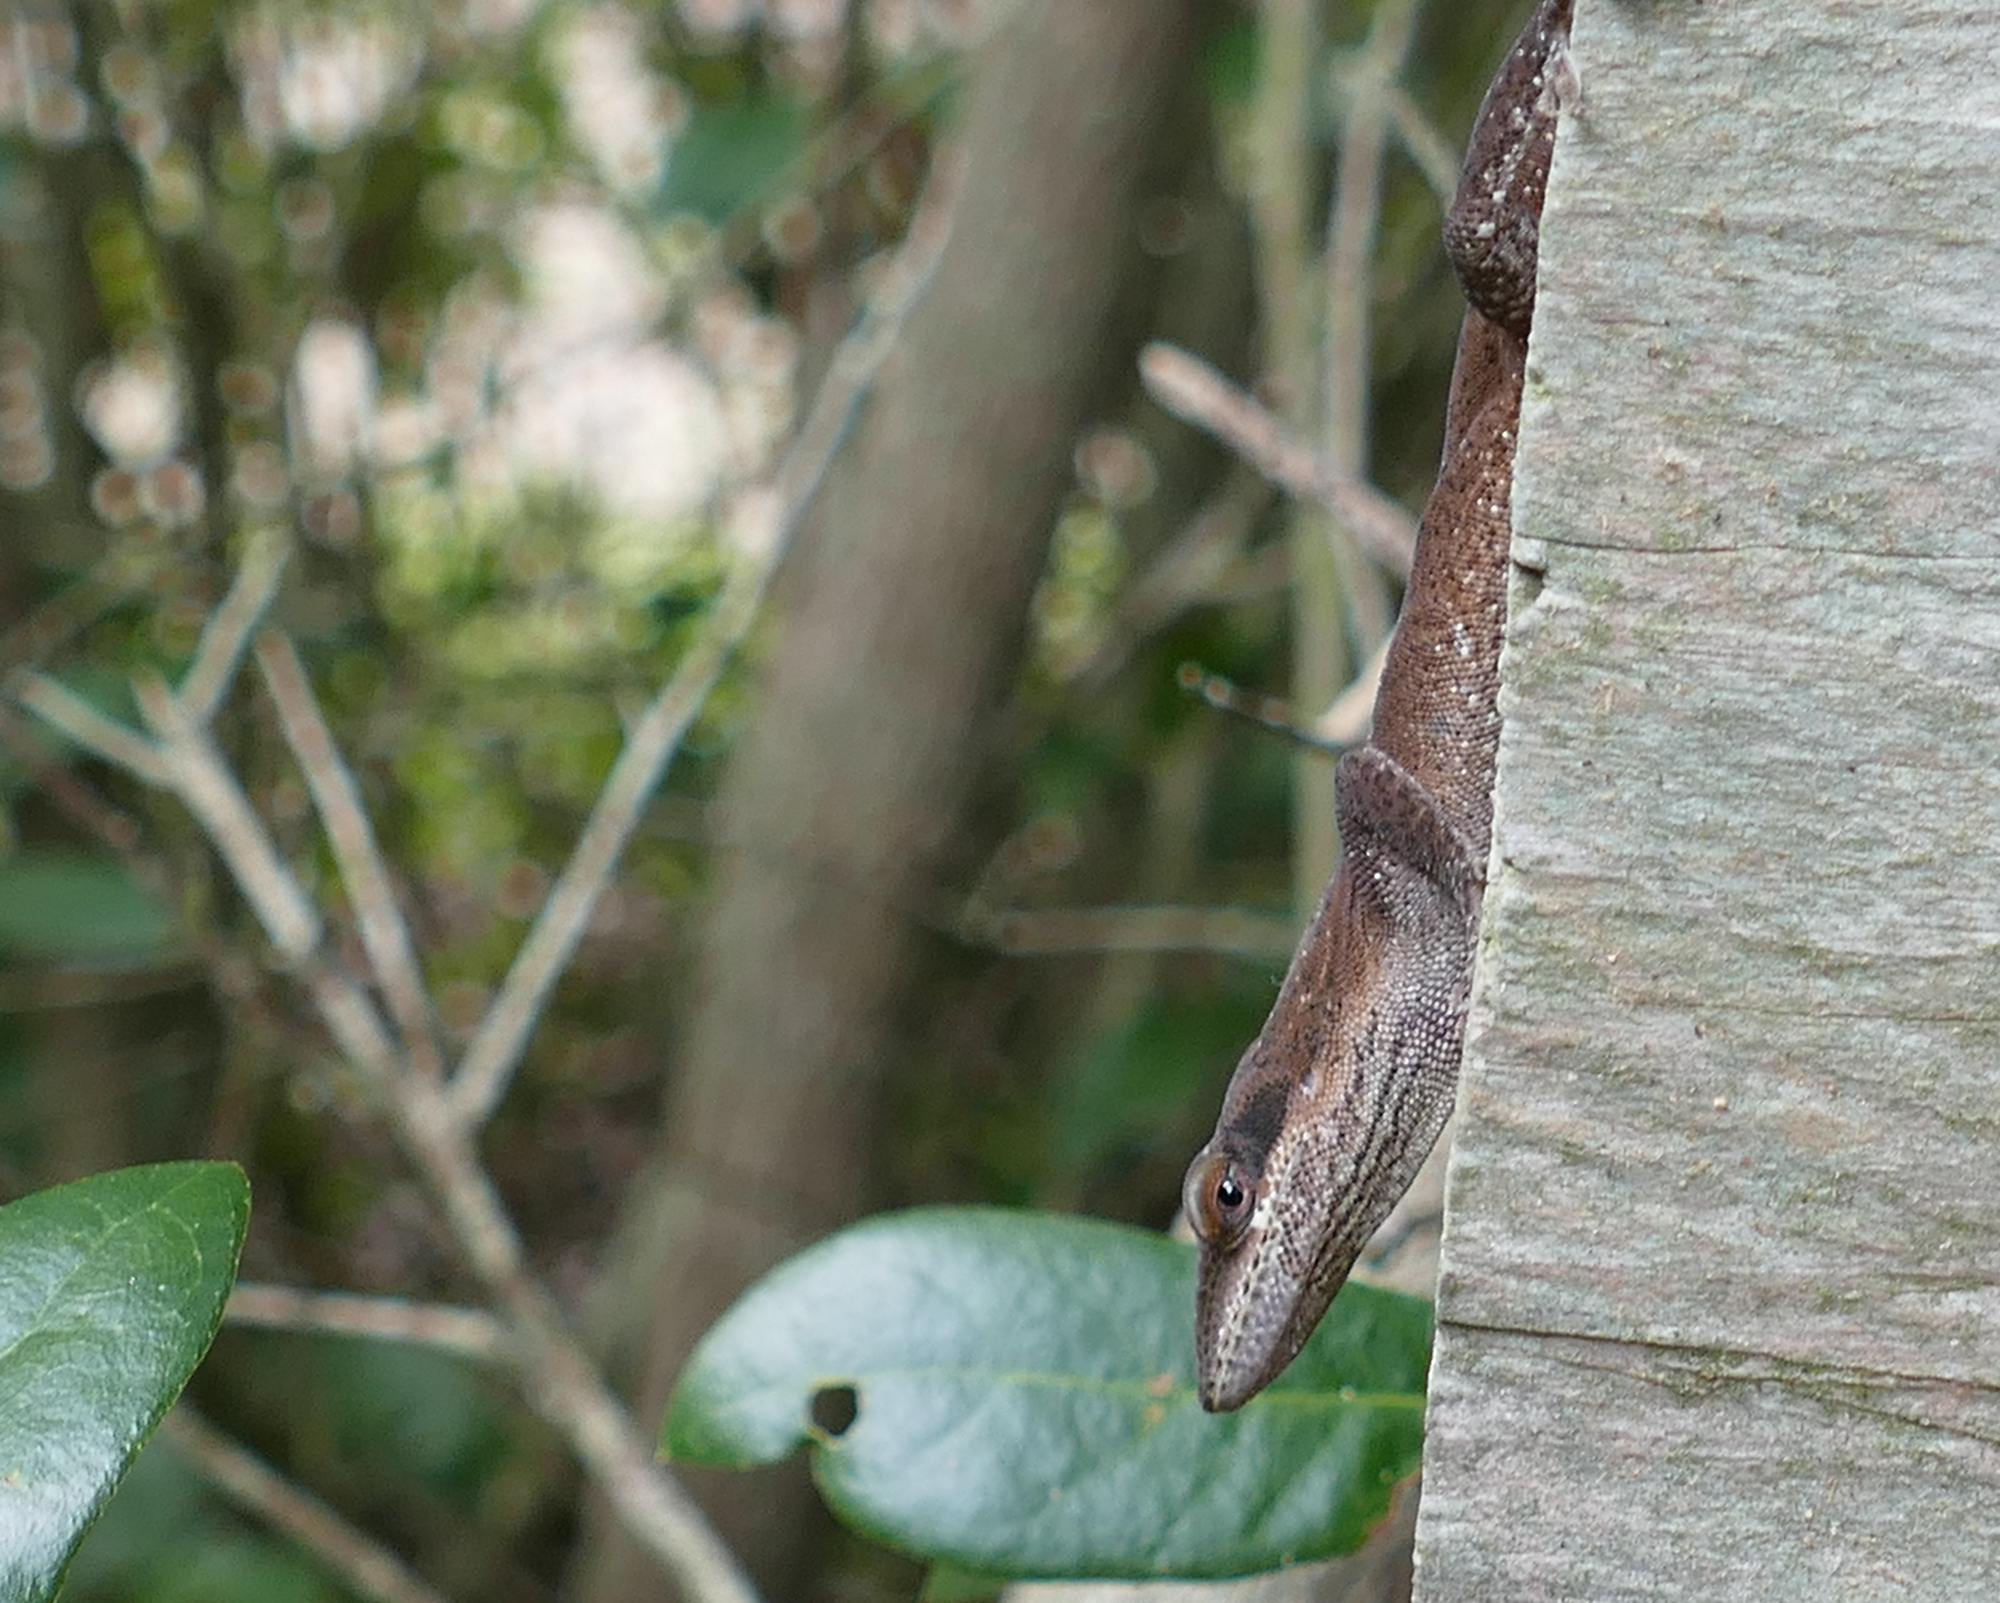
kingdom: Animalia
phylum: Chordata
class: Squamata
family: Dactyloidae
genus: Anolis
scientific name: Anolis carolinensis
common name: Green anole
